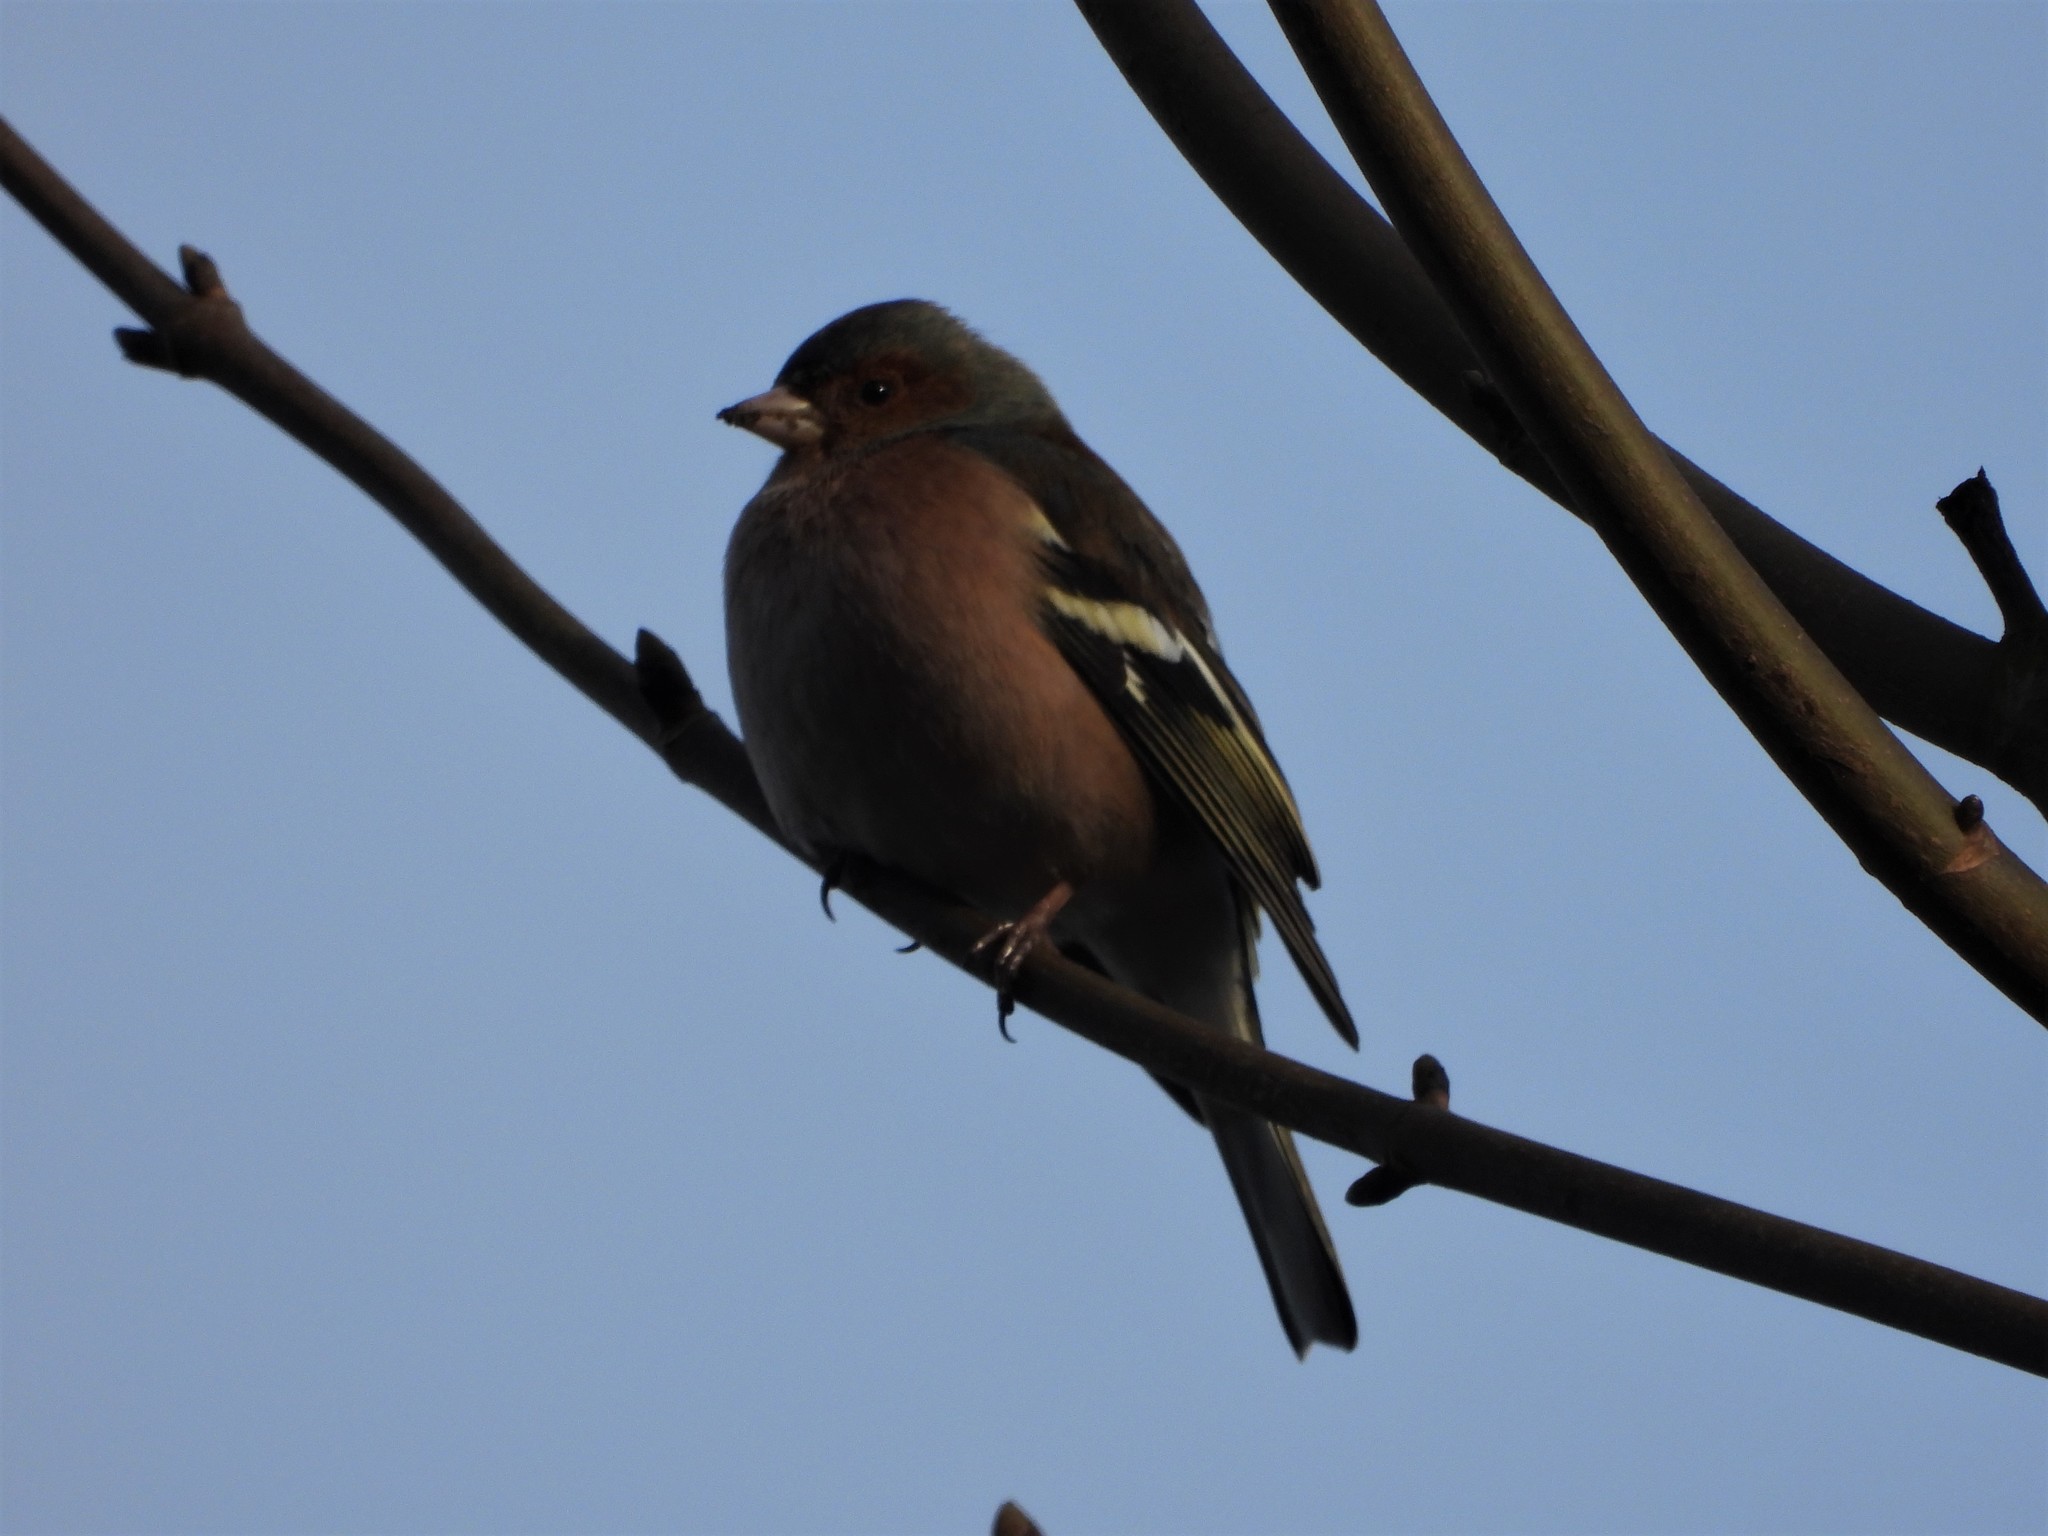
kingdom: Animalia
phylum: Chordata
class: Aves
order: Passeriformes
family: Fringillidae
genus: Fringilla
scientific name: Fringilla coelebs
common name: Common chaffinch
